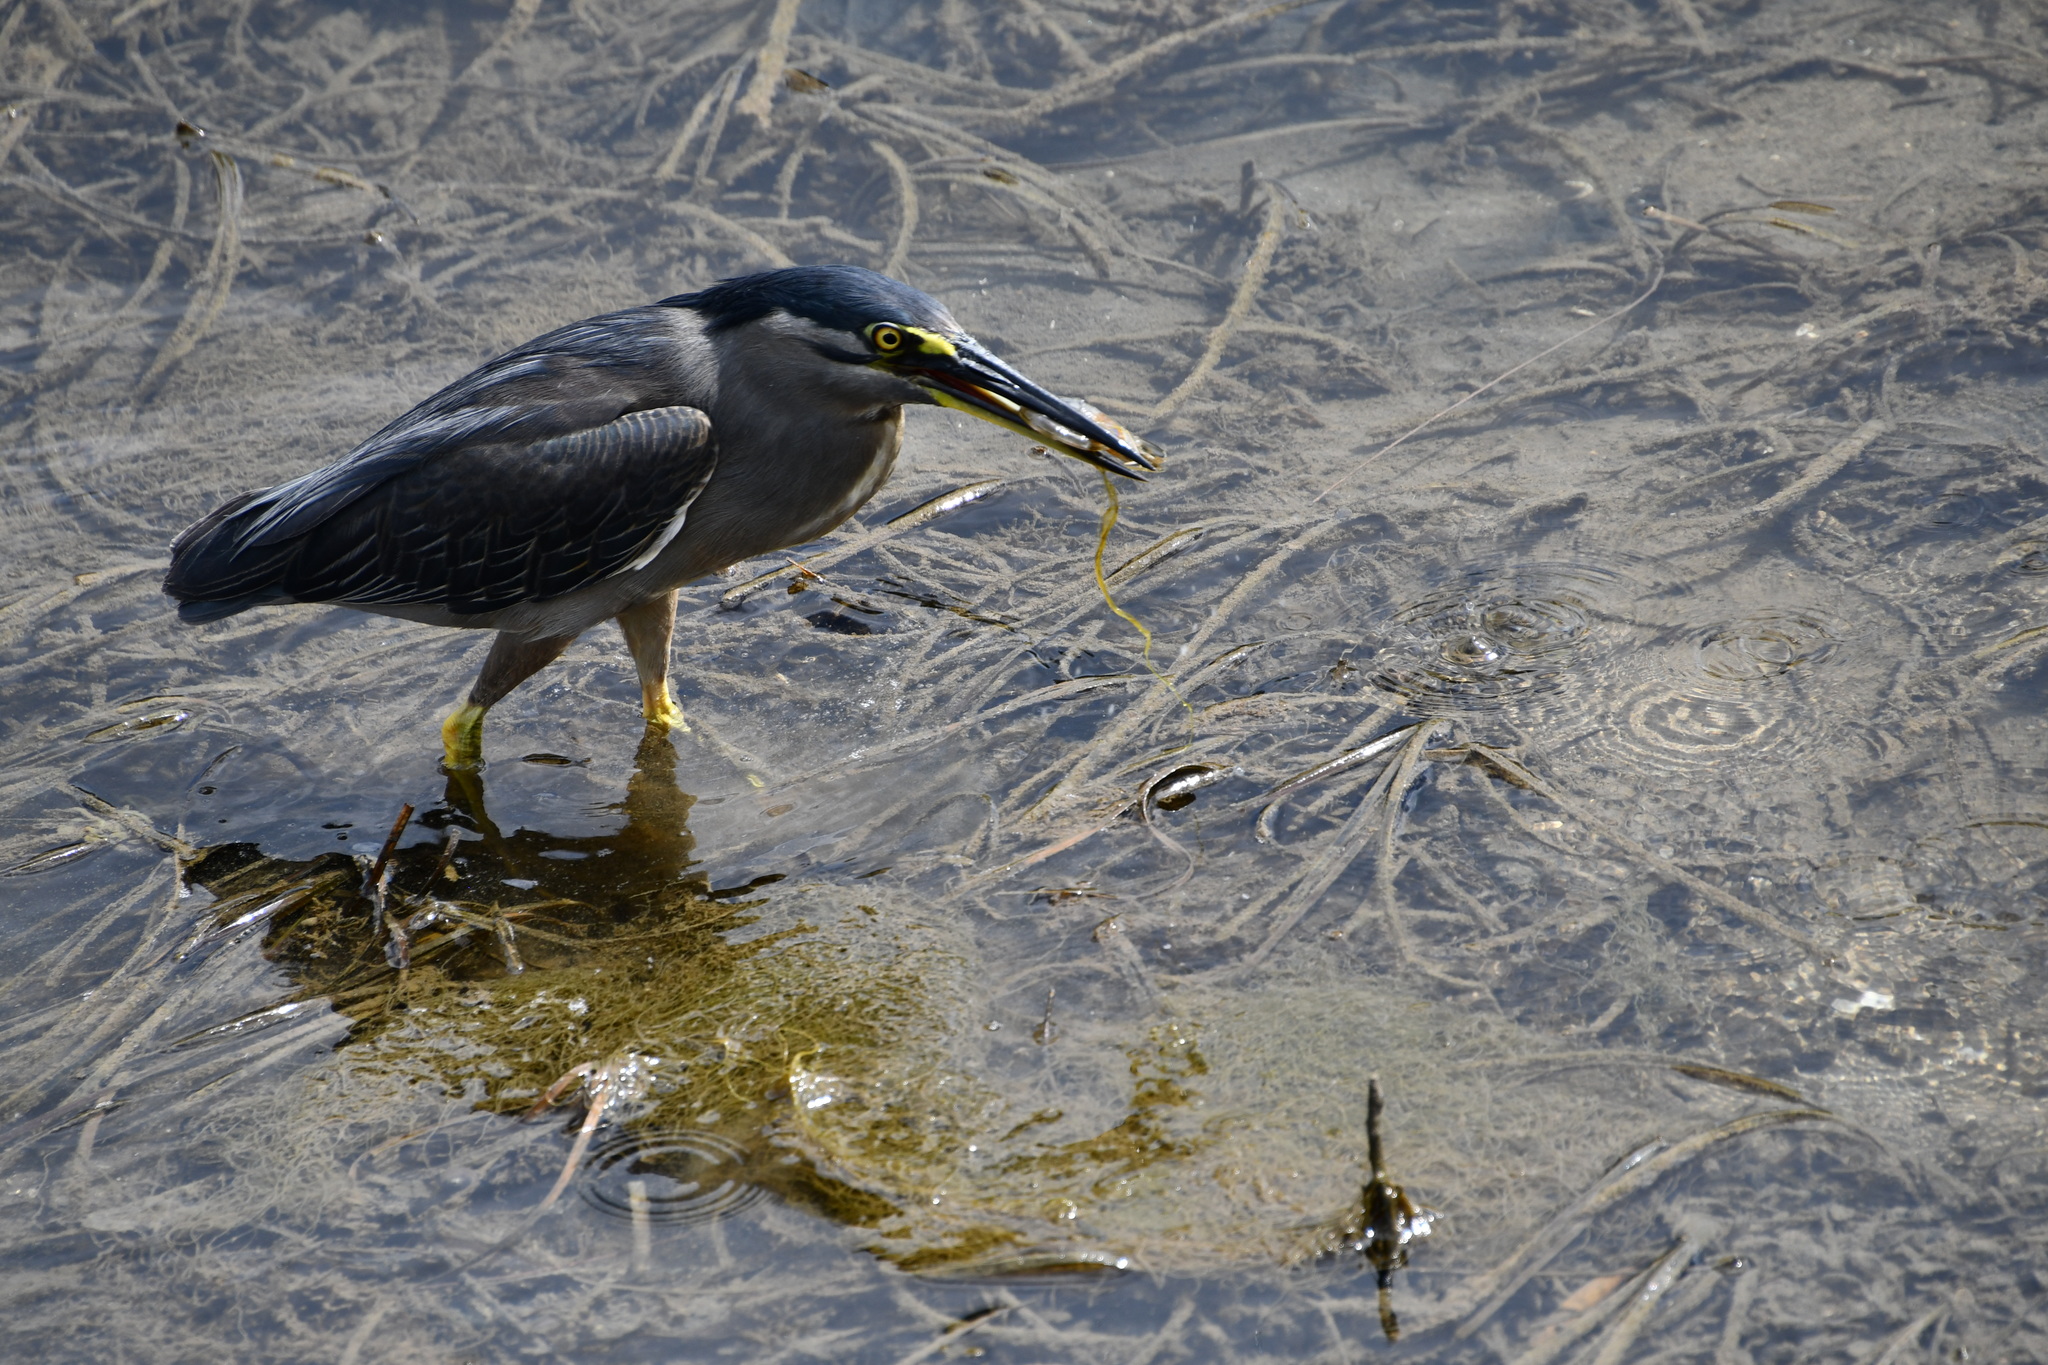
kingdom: Animalia
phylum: Chordata
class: Aves
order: Pelecaniformes
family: Ardeidae
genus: Butorides
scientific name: Butorides striata
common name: Striated heron
